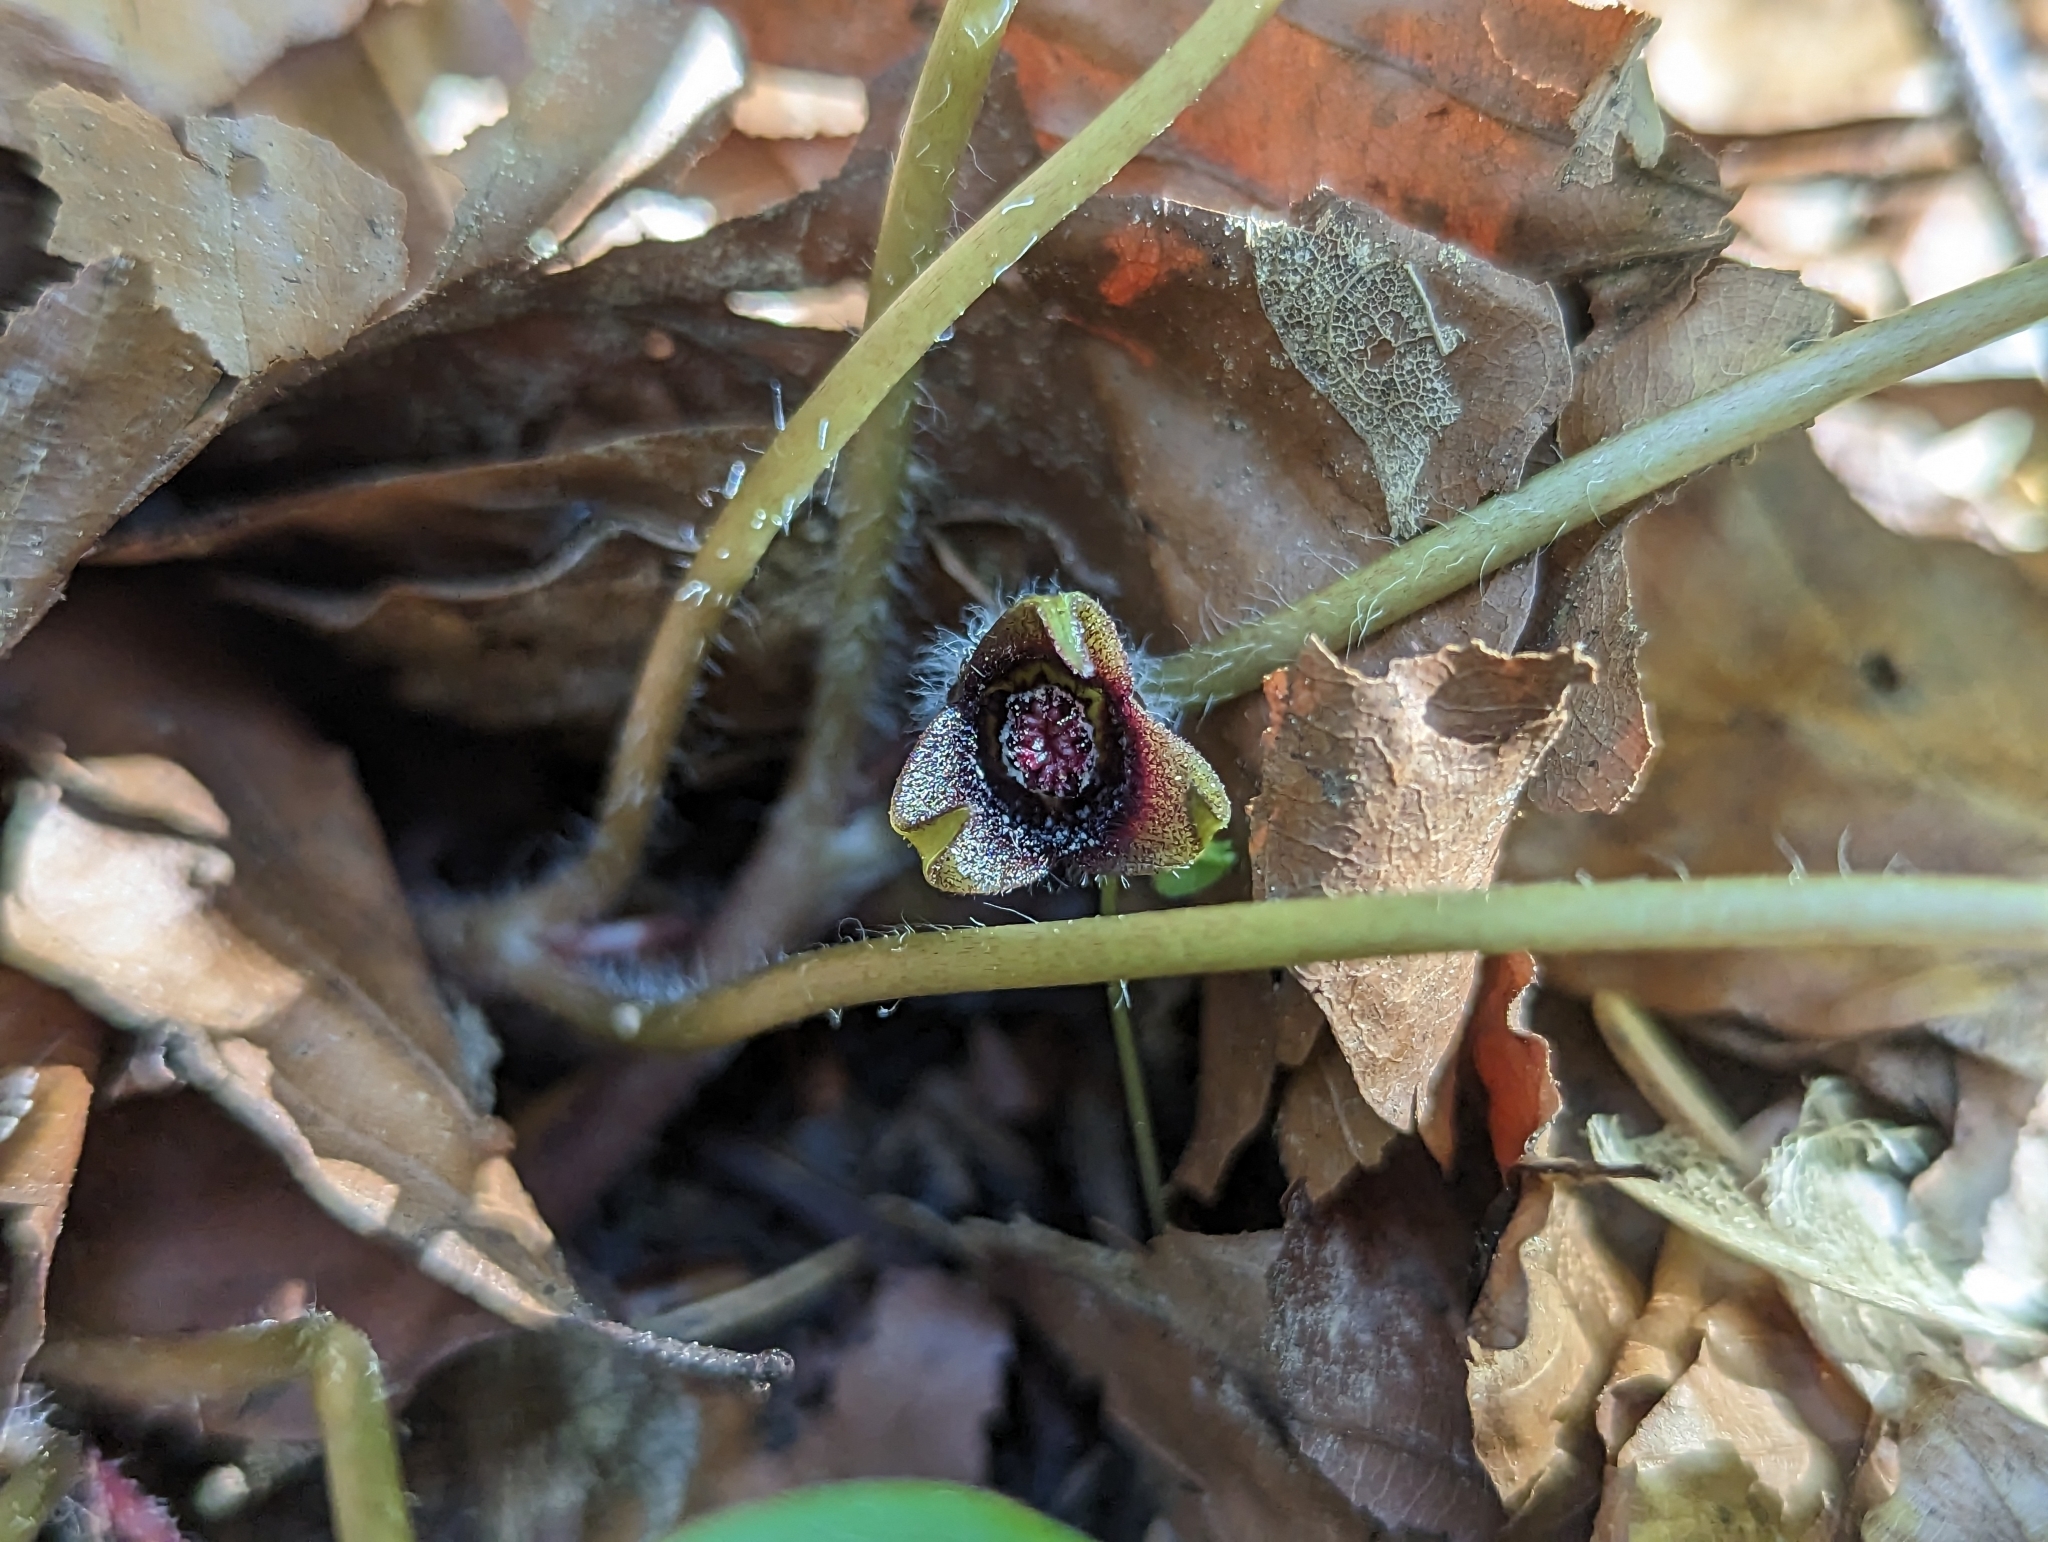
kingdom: Plantae
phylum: Tracheophyta
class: Magnoliopsida
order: Piperales
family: Aristolochiaceae
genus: Asarum
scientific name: Asarum europaeum
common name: Asarabacca
